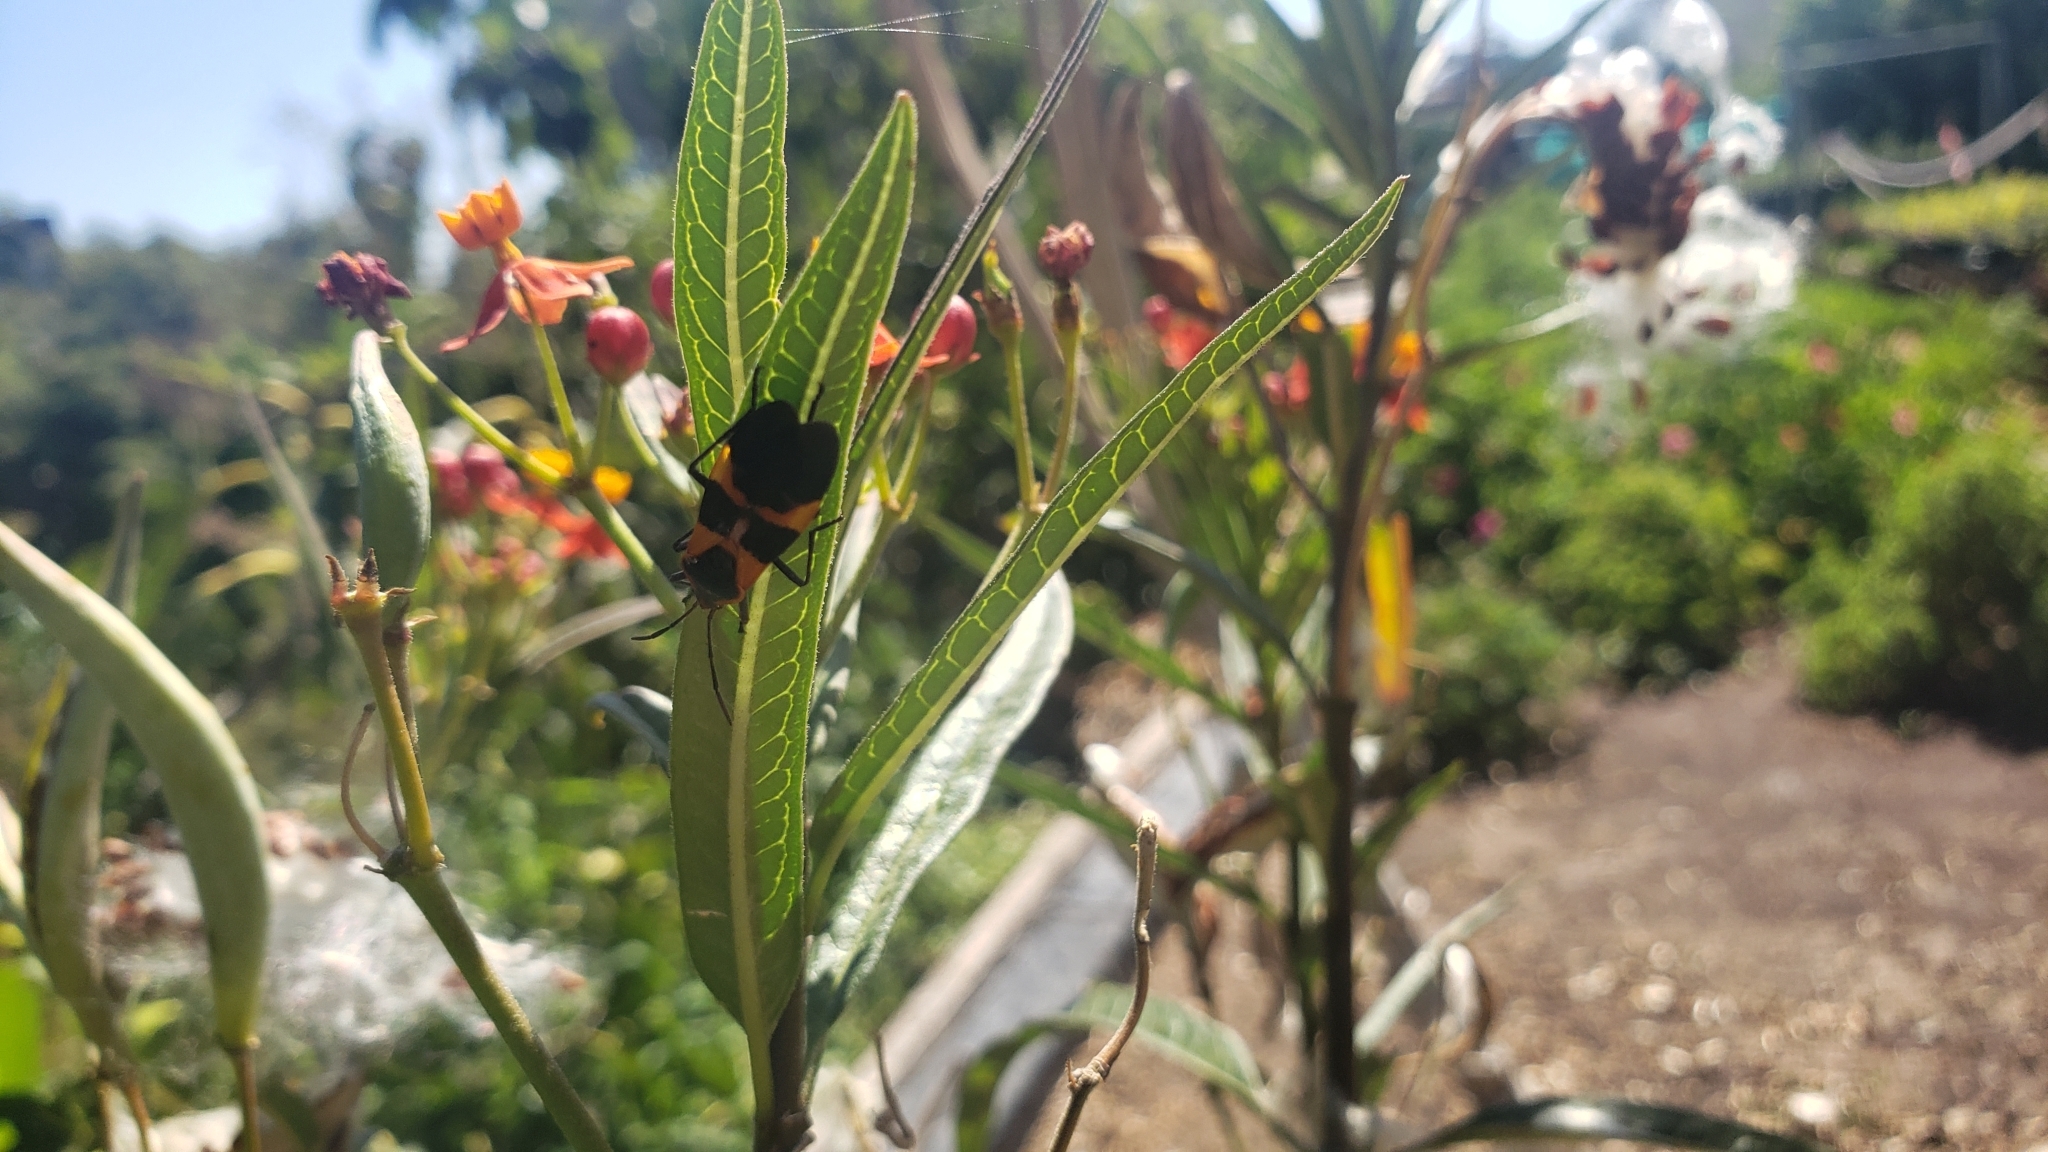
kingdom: Animalia
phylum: Arthropoda
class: Insecta
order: Hemiptera
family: Lygaeidae
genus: Oncopeltus
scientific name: Oncopeltus fasciatus
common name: Large milkweed bug
